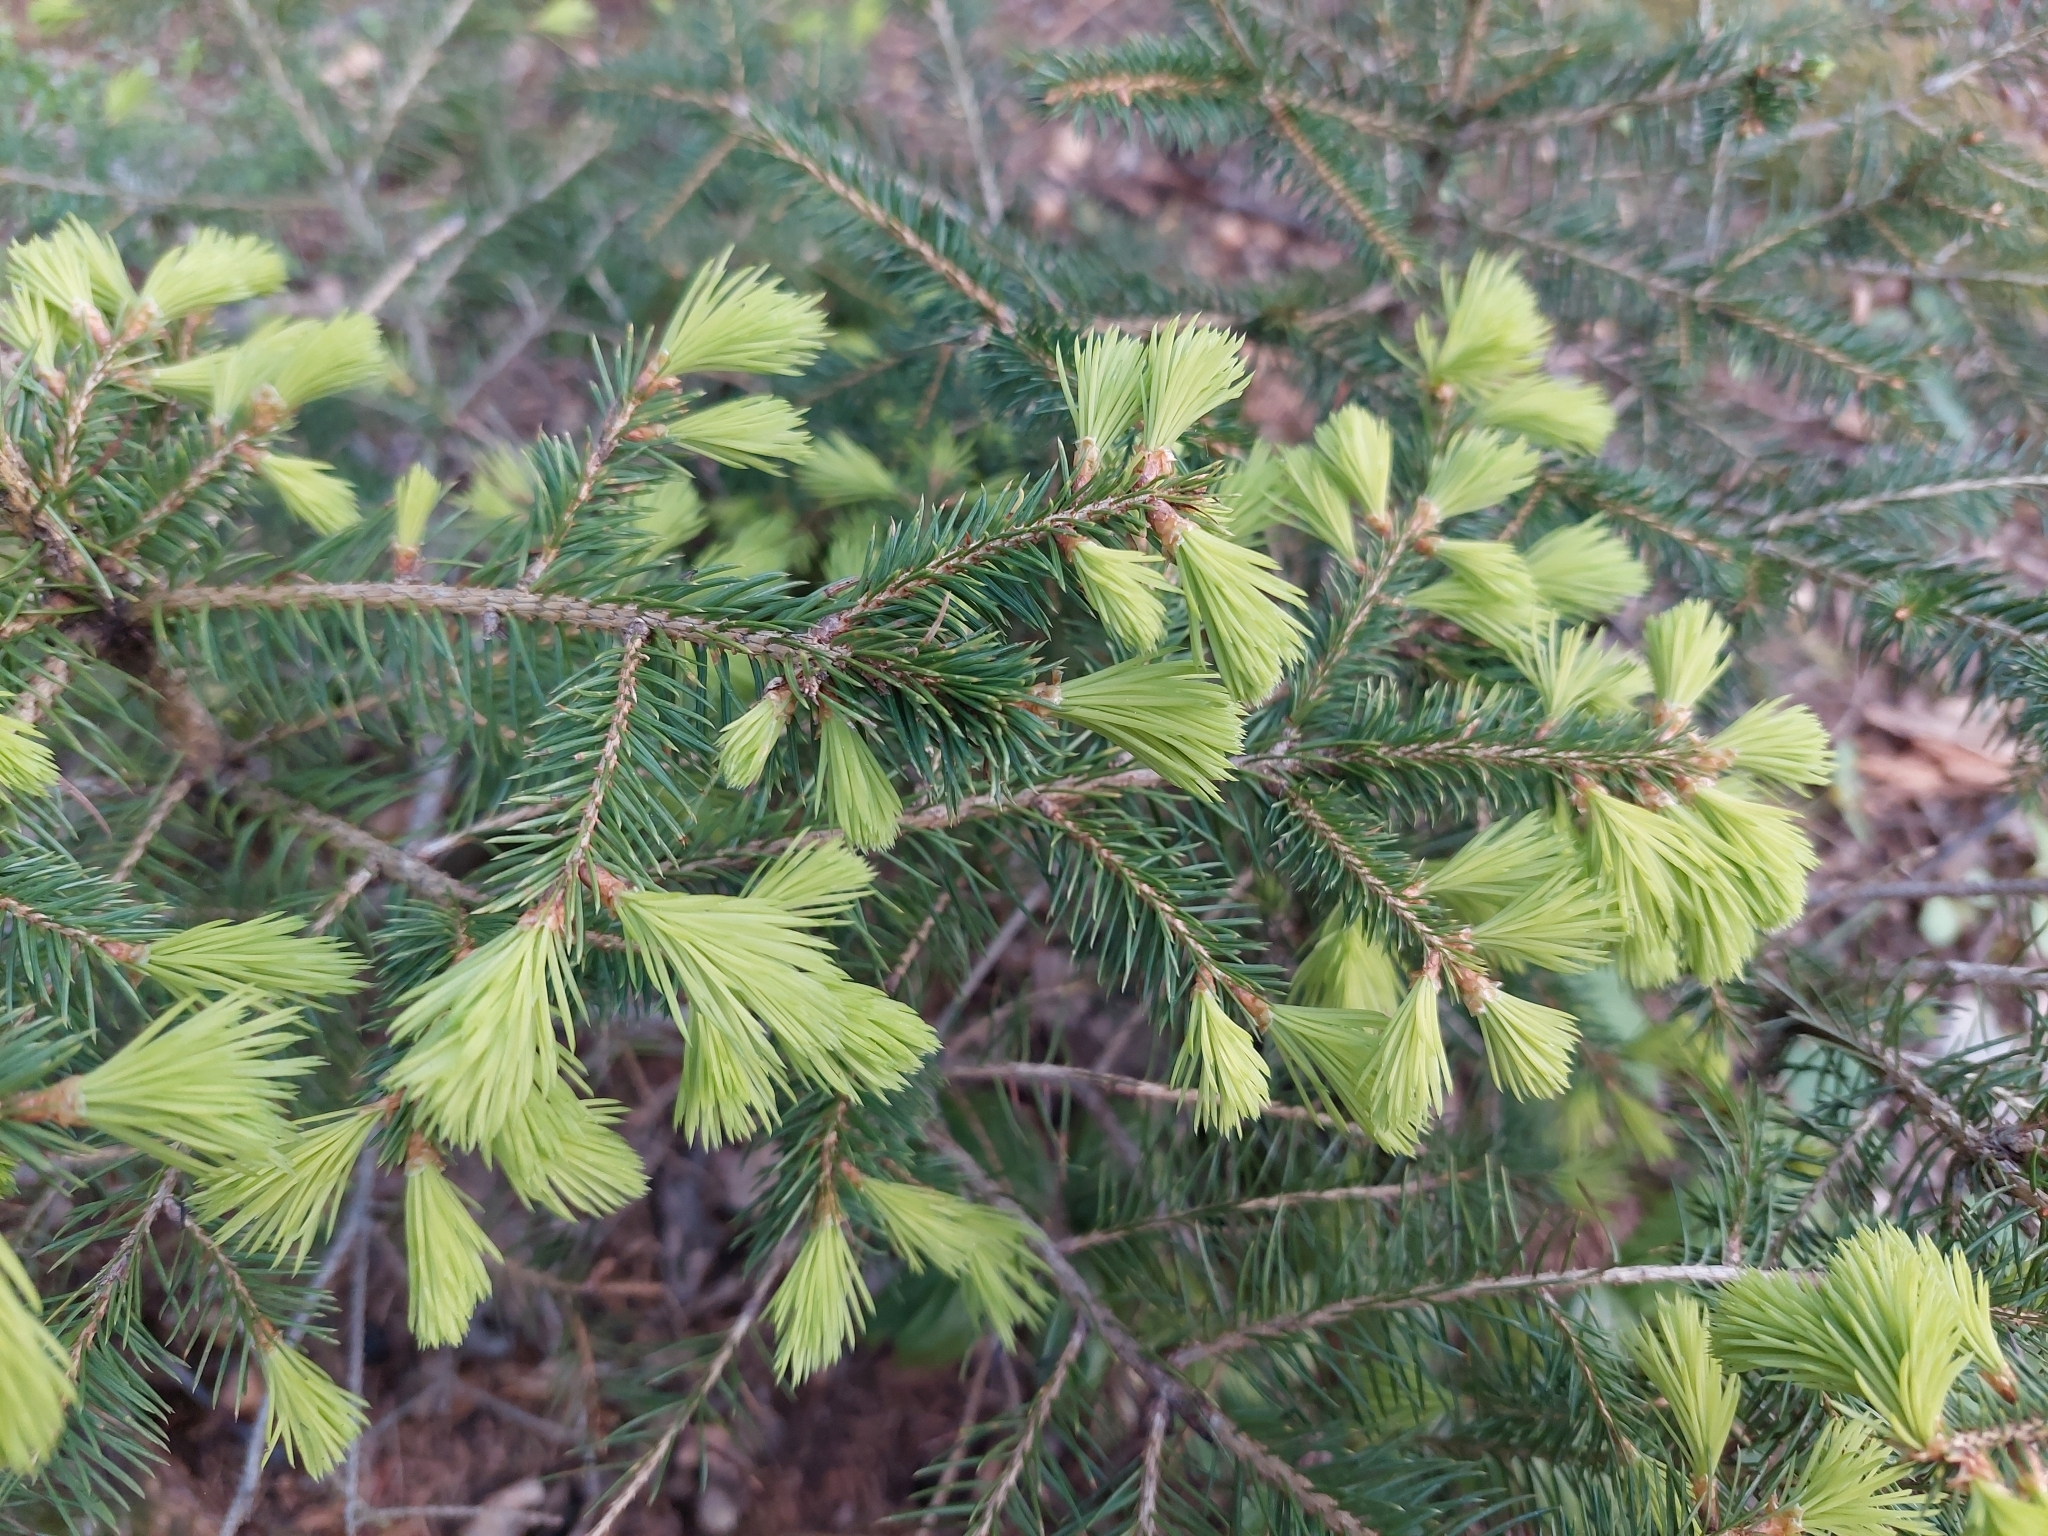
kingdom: Plantae
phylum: Tracheophyta
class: Pinopsida
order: Pinales
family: Pinaceae
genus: Picea
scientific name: Picea abies
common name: Norway spruce
